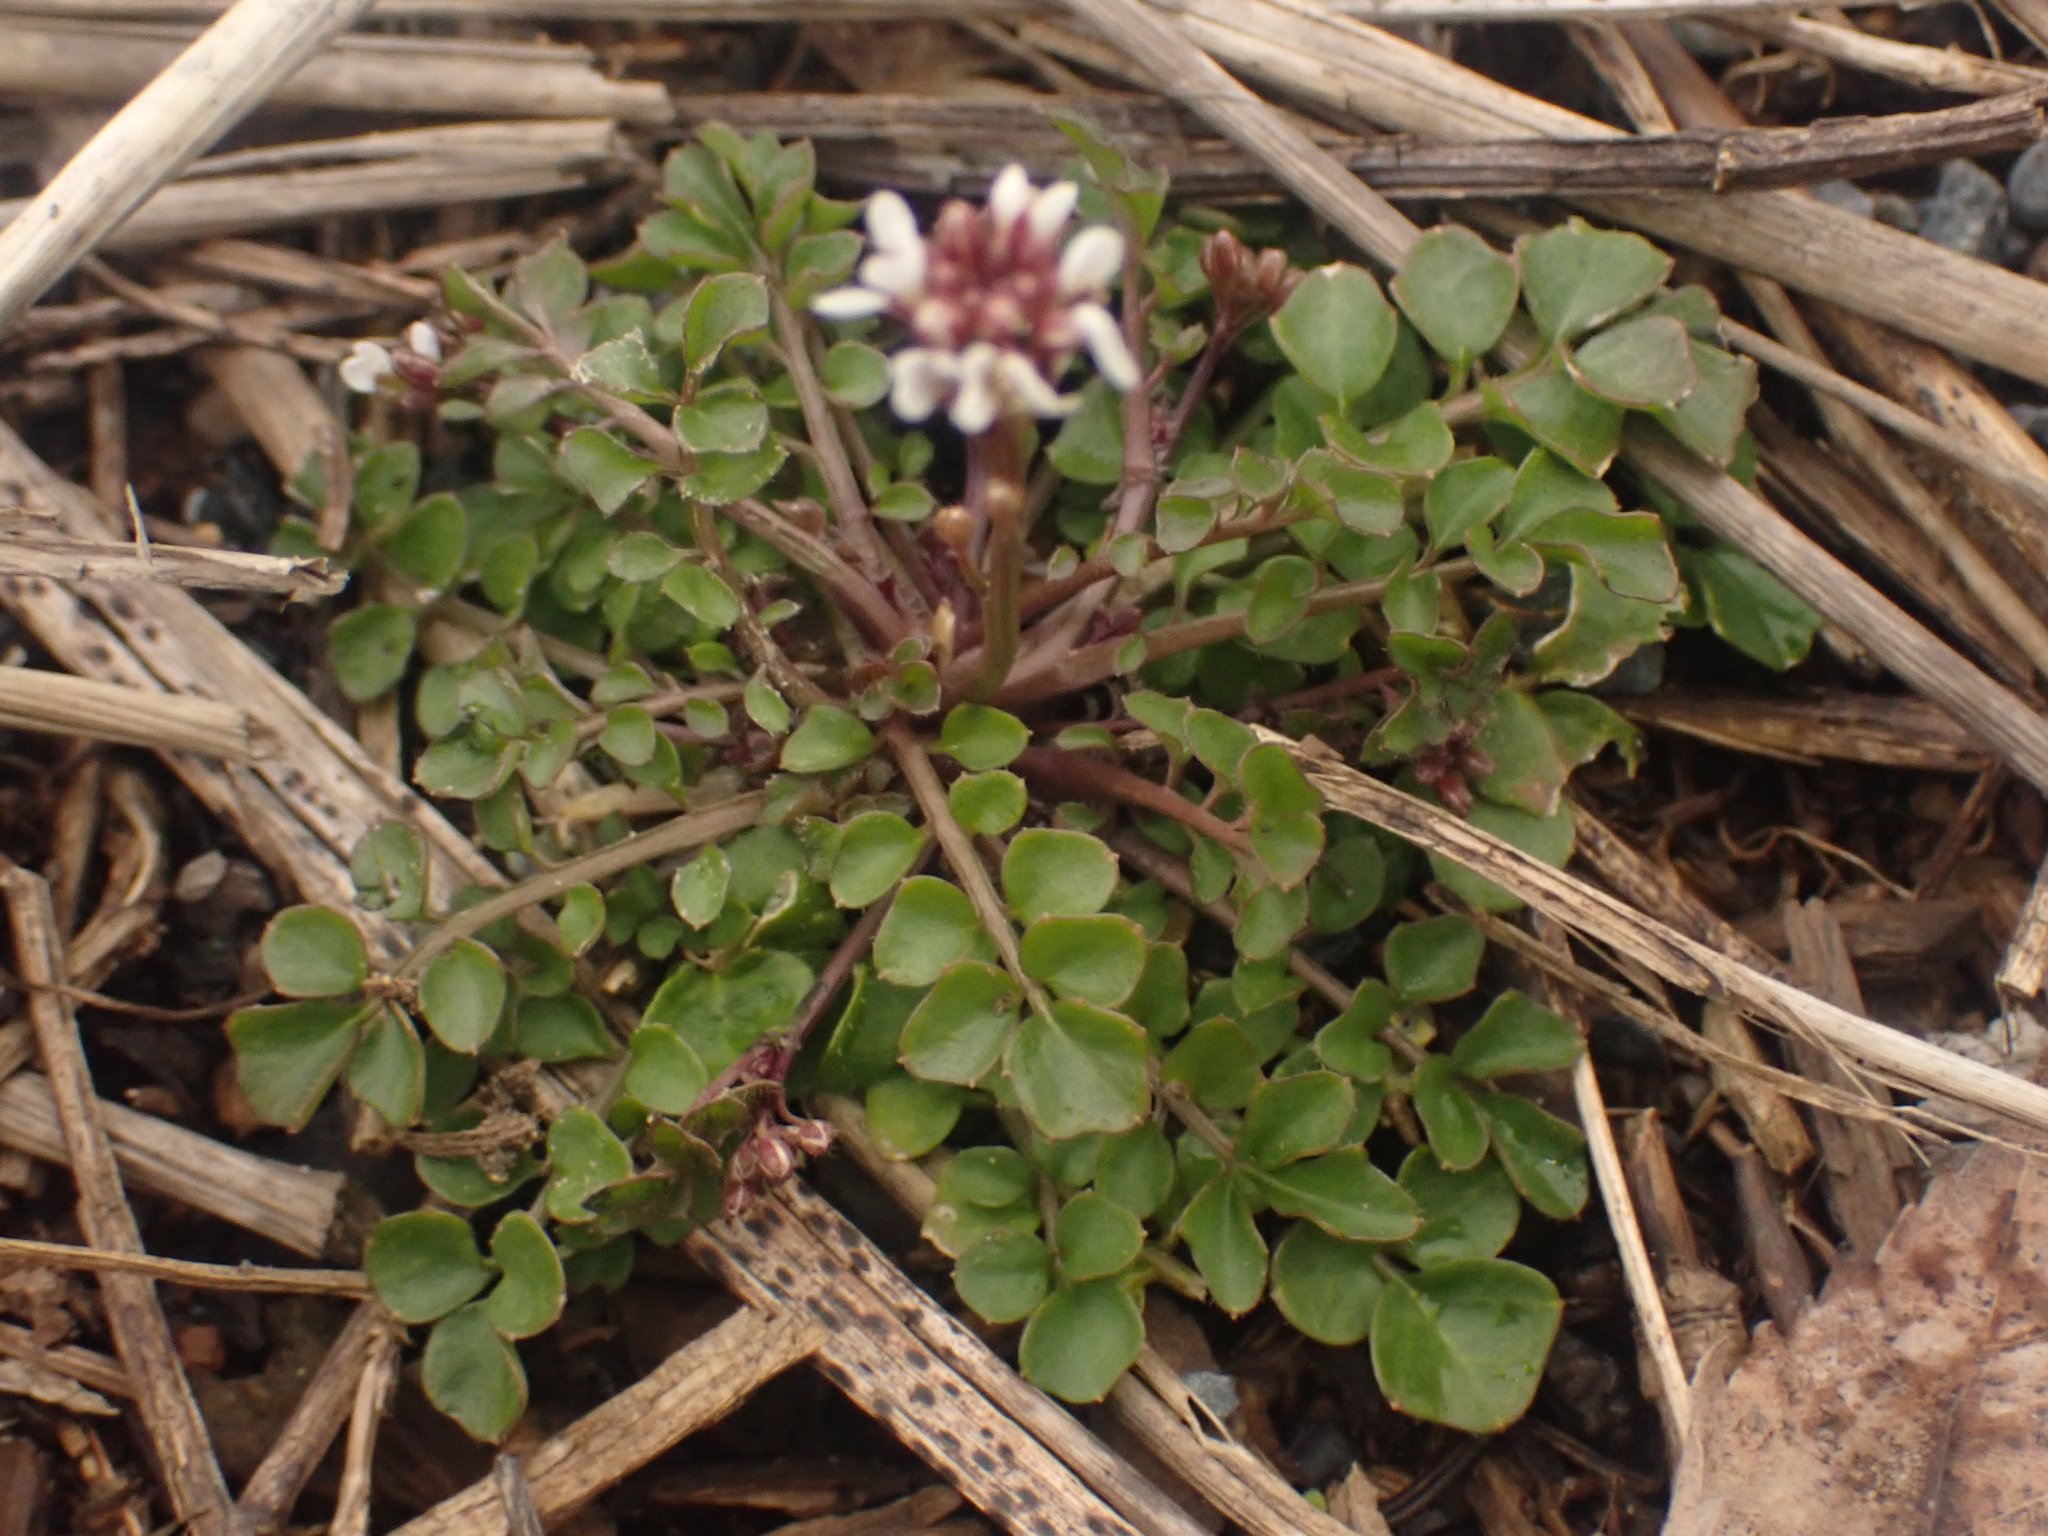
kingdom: Plantae
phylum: Tracheophyta
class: Magnoliopsida
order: Brassicales
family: Brassicaceae
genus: Cardamine
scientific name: Cardamine hirsuta
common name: Hairy bittercress
